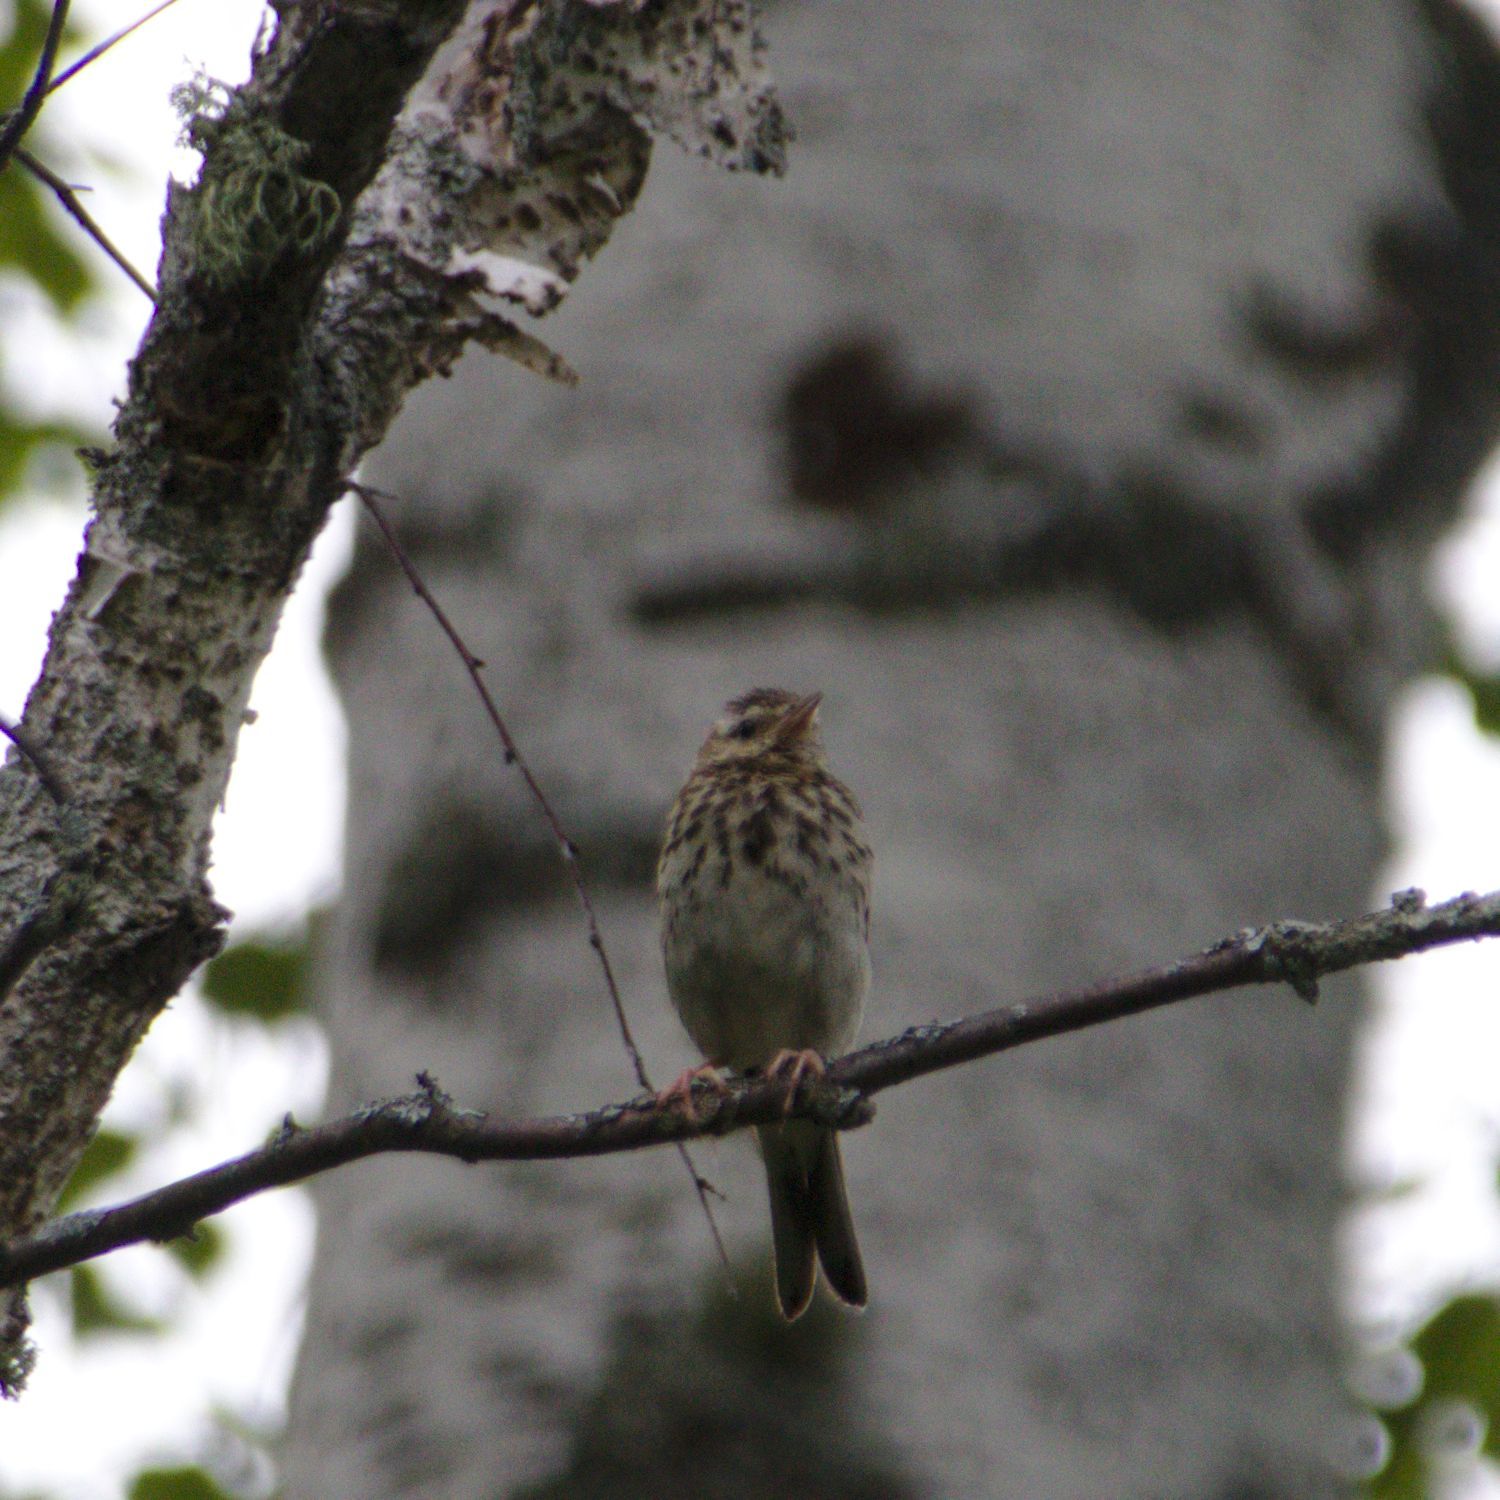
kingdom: Animalia
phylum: Chordata
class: Aves
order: Passeriformes
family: Motacillidae
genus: Anthus
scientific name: Anthus trivialis
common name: Tree pipit
